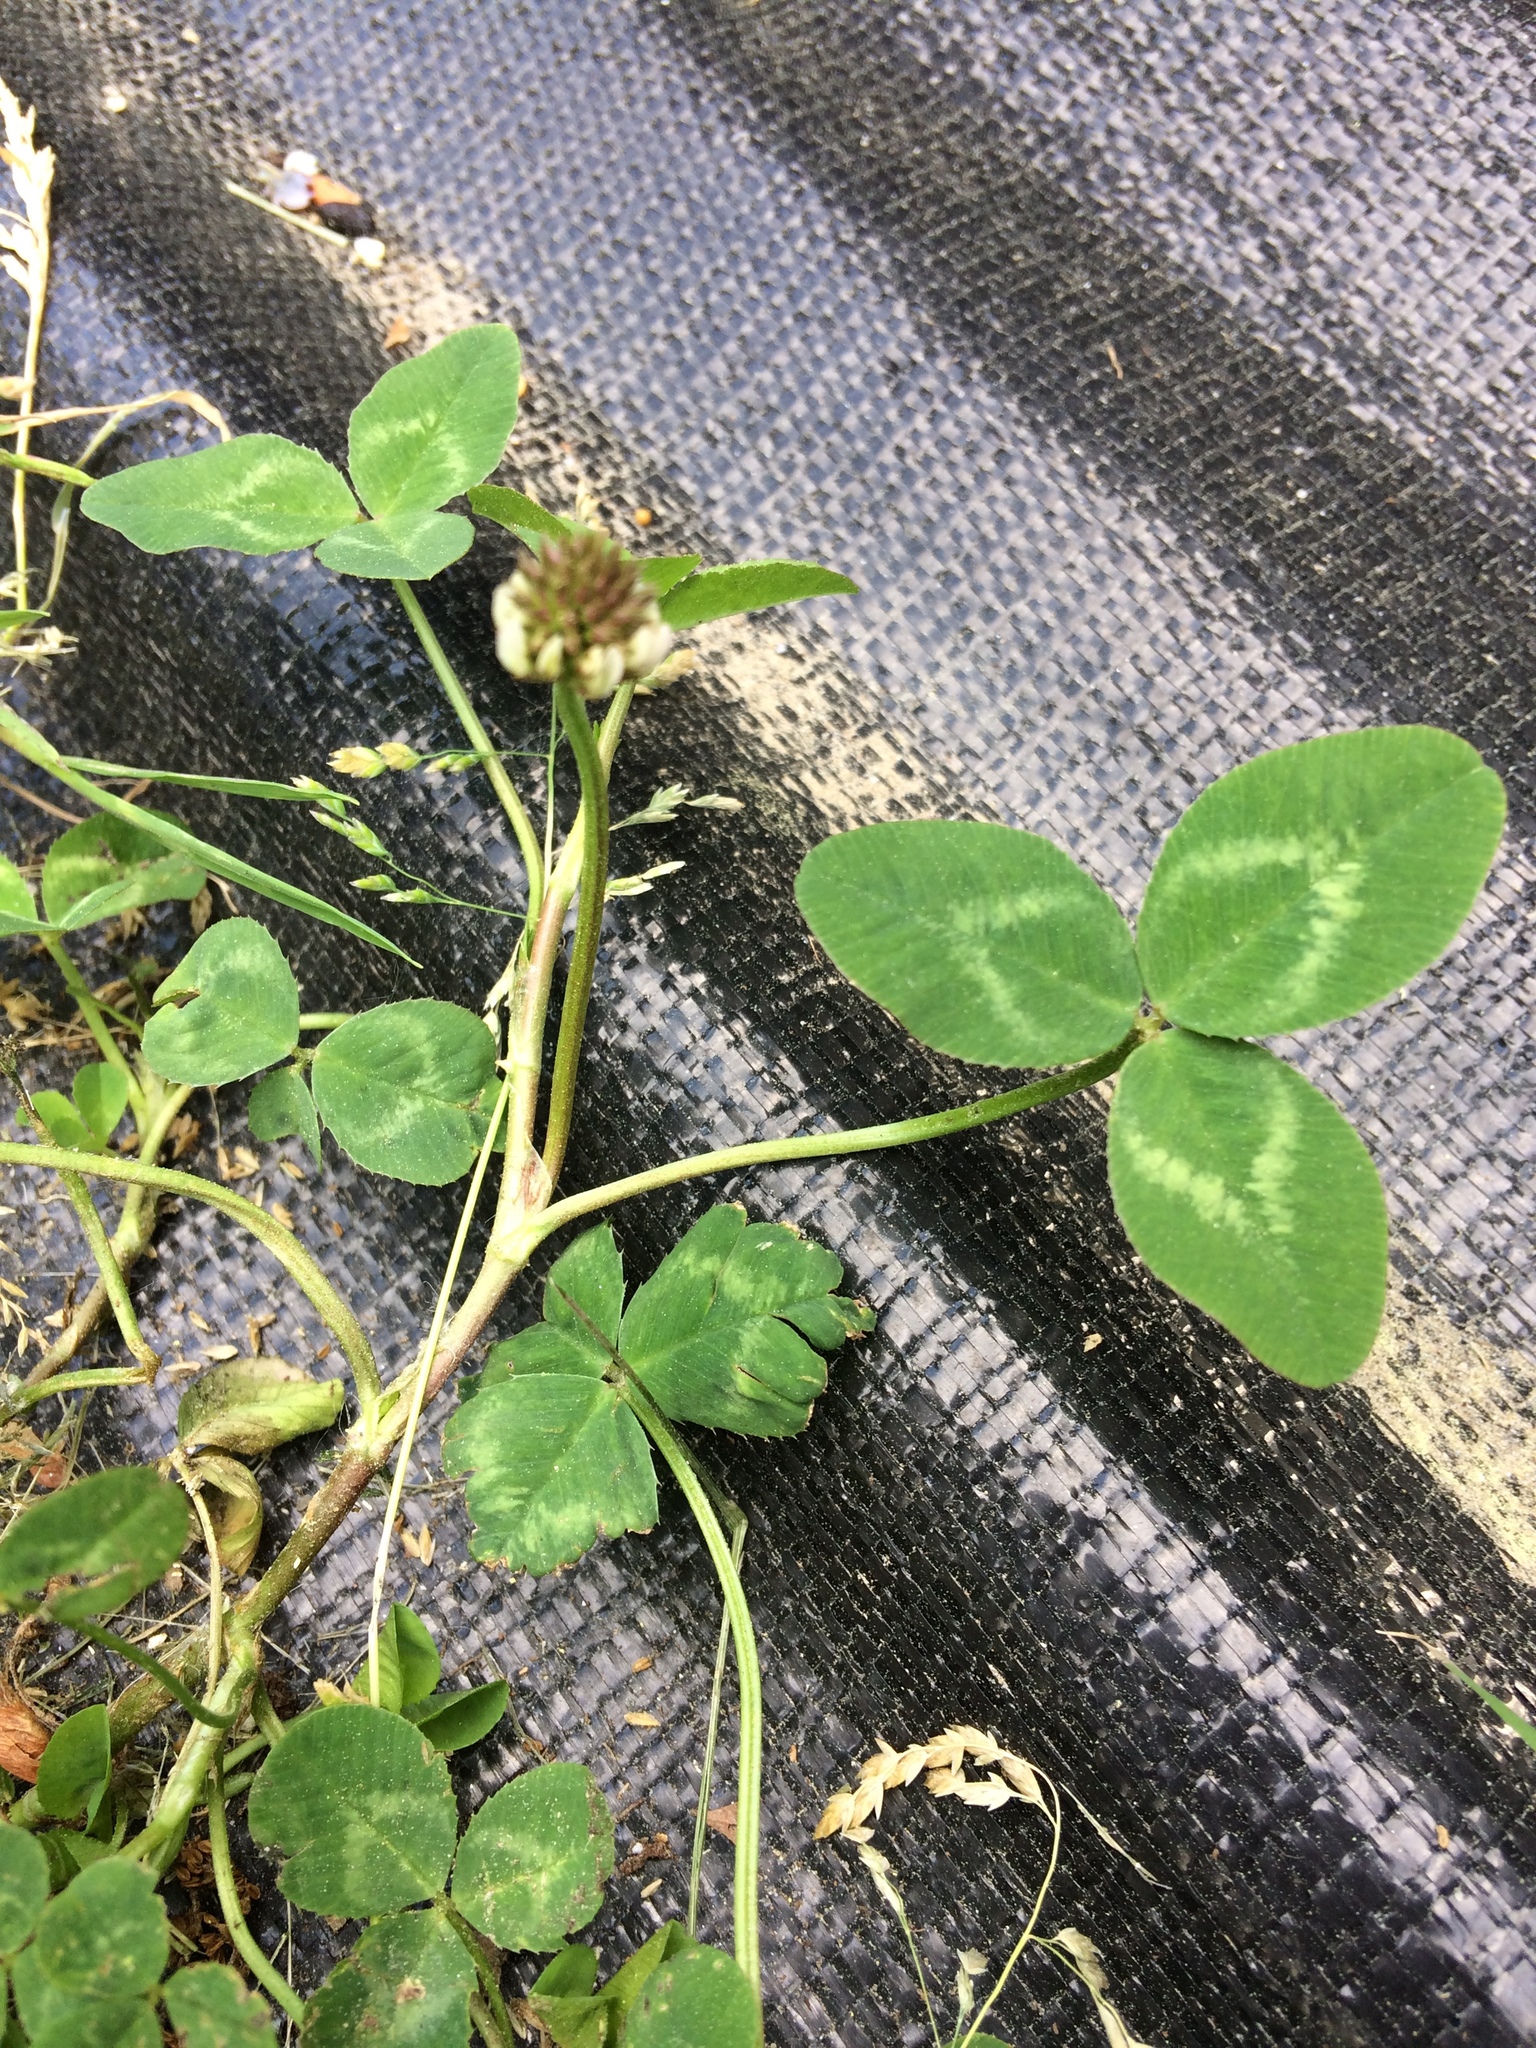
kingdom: Plantae
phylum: Tracheophyta
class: Magnoliopsida
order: Fabales
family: Fabaceae
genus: Trifolium
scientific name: Trifolium repens
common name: White clover
